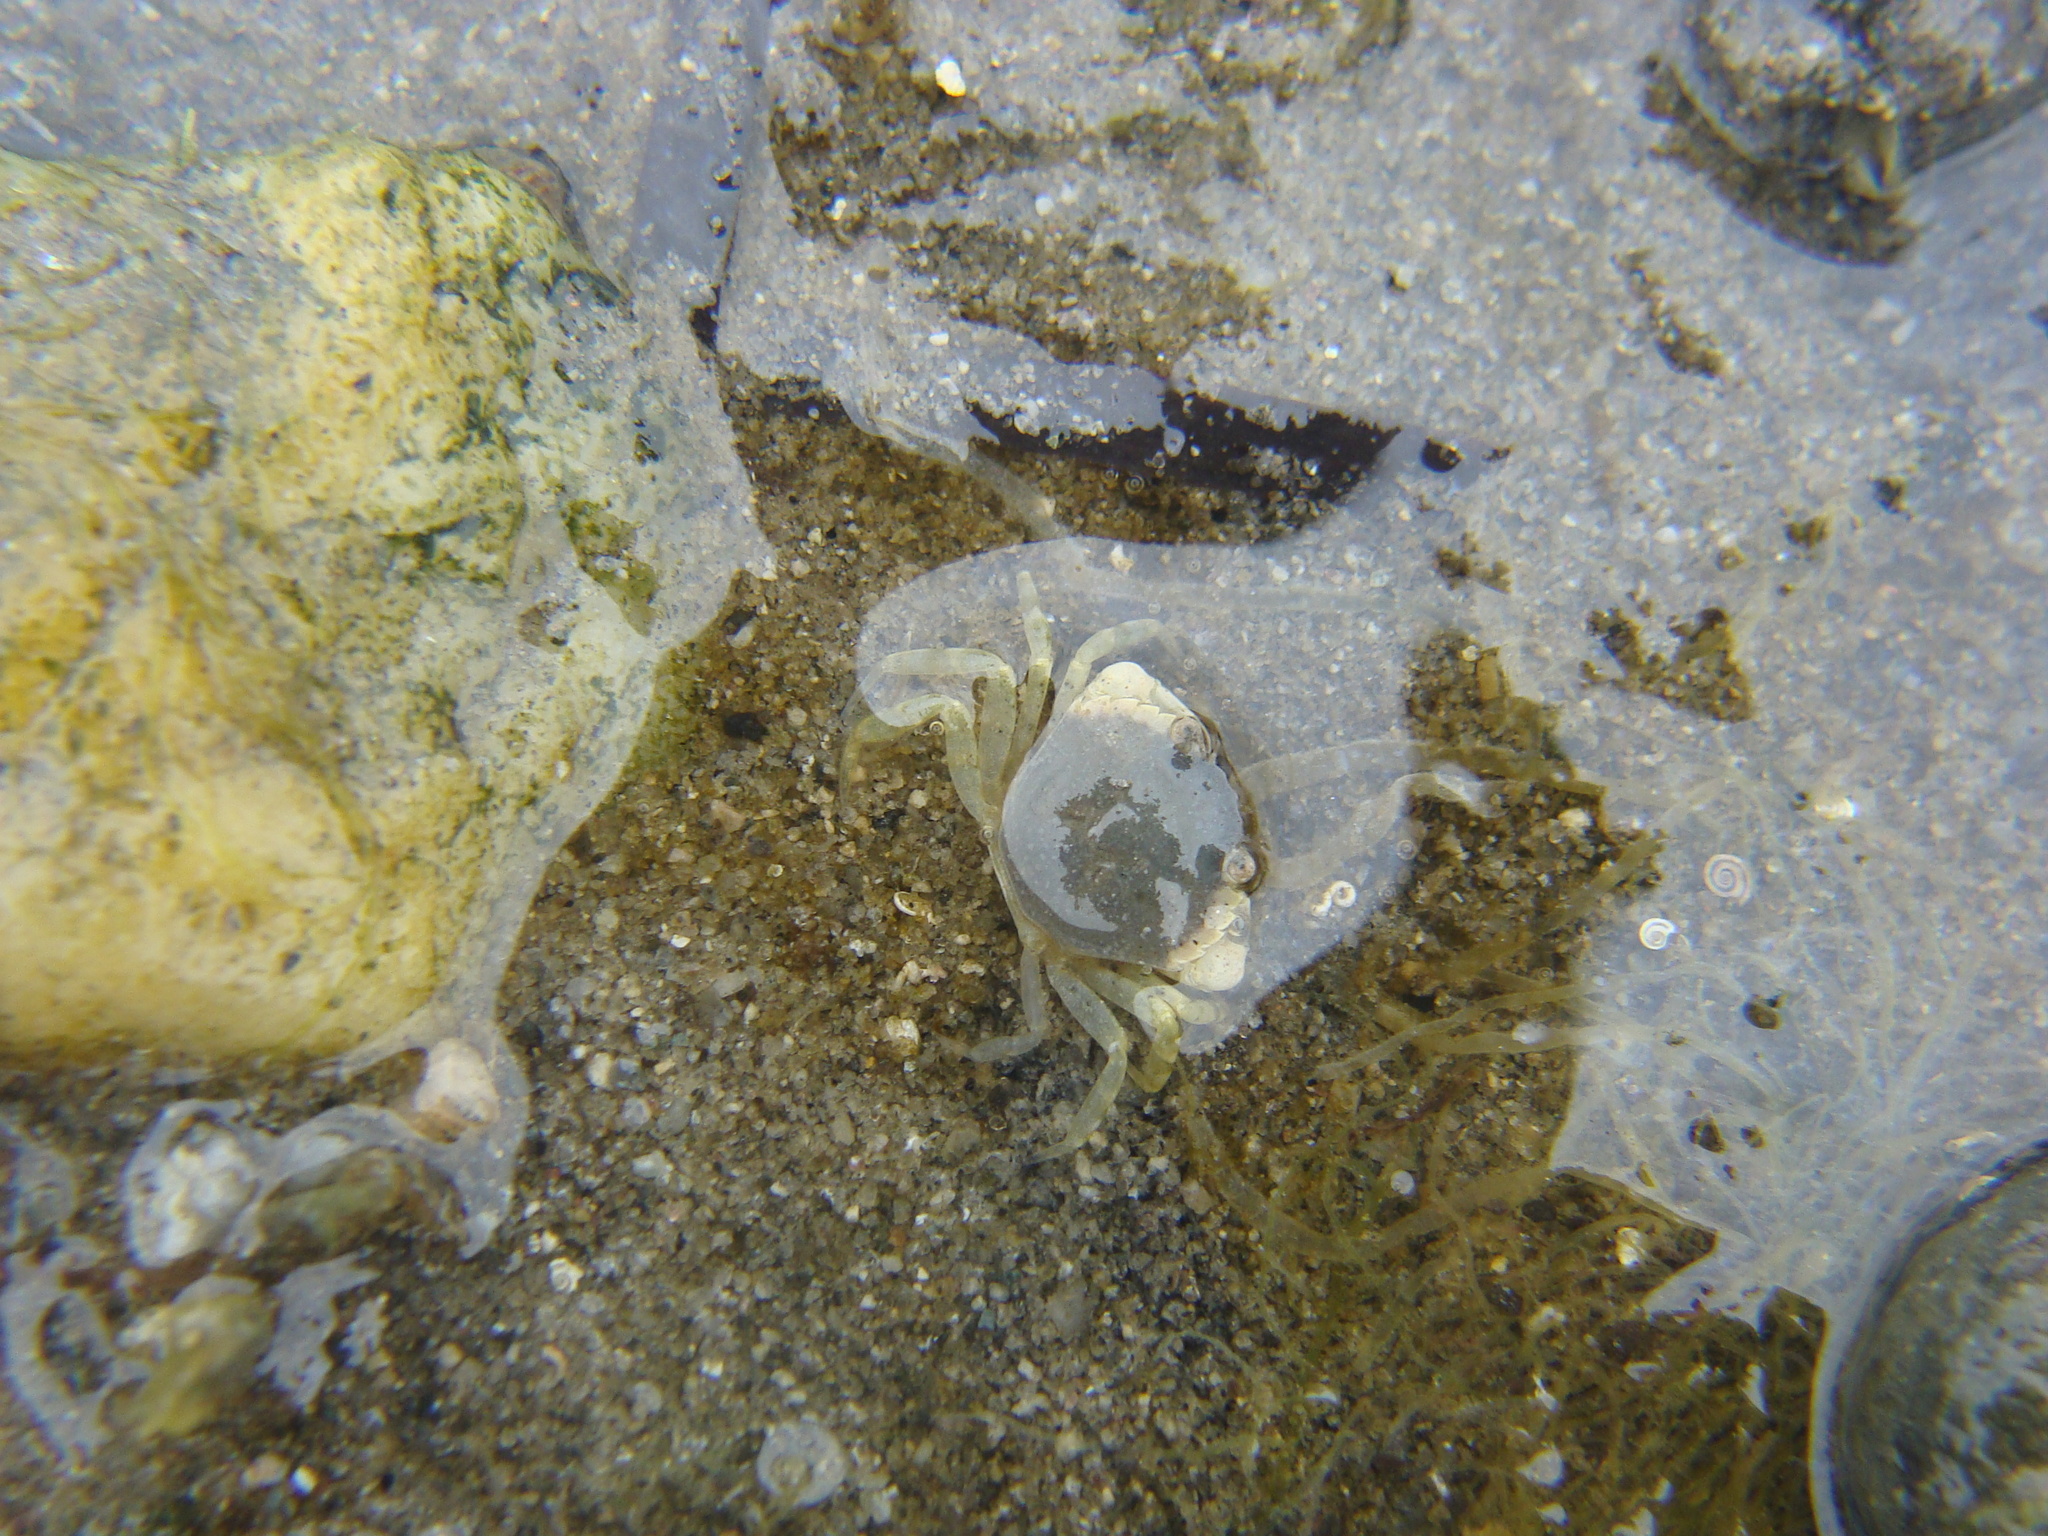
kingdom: Animalia
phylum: Arthropoda
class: Malacostraca
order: Decapoda
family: Carcinidae
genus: Carcinus
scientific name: Carcinus maenas
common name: European green crab
